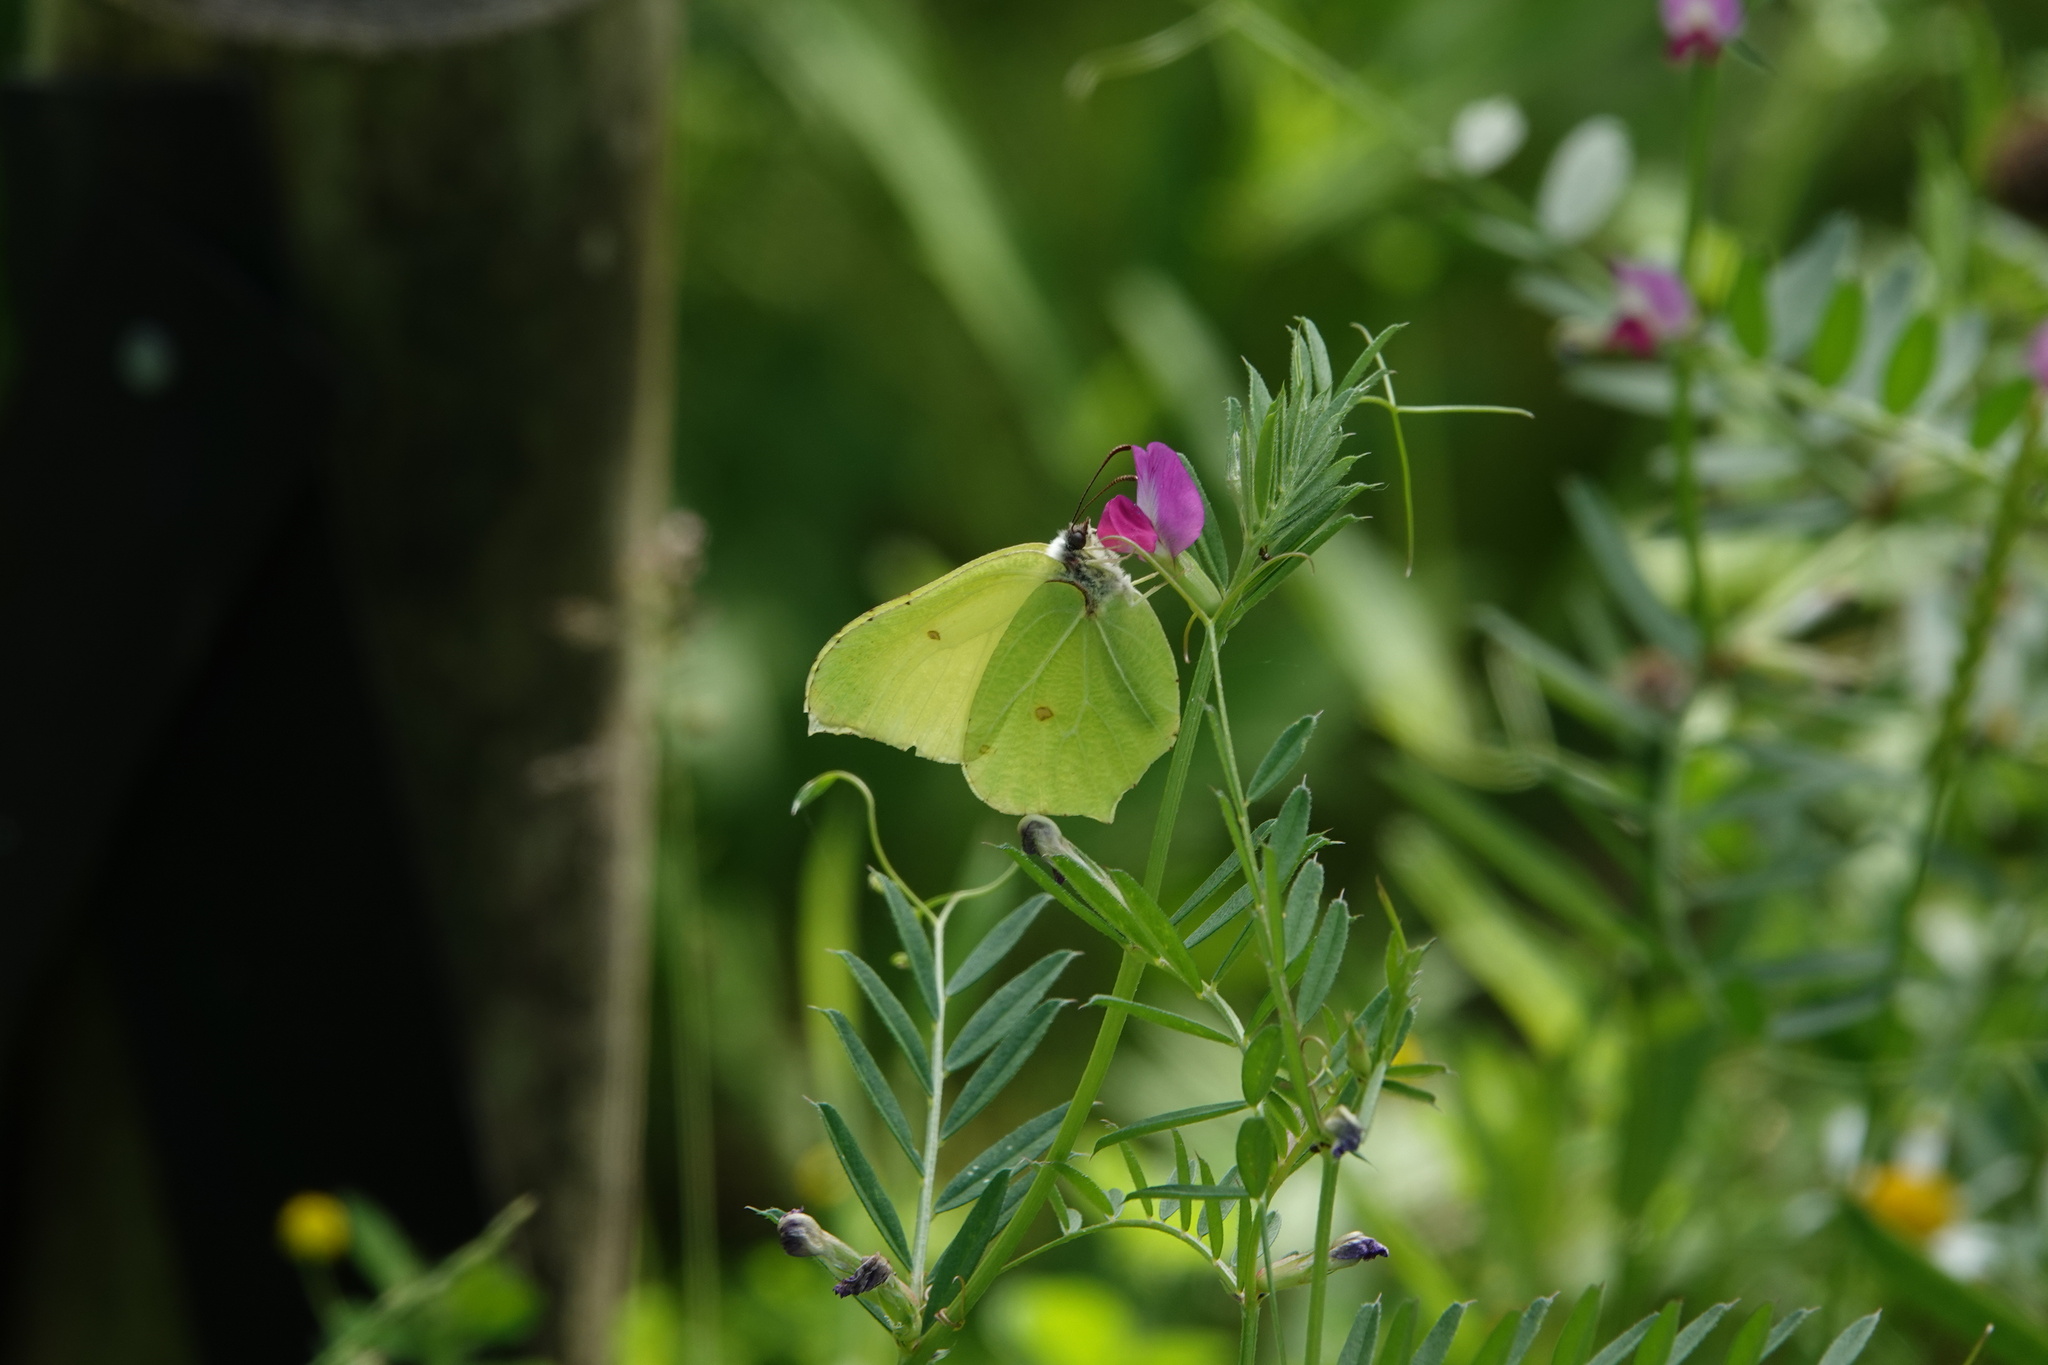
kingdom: Animalia
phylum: Arthropoda
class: Insecta
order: Lepidoptera
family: Pieridae
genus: Gonepteryx
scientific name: Gonepteryx rhamni
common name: Brimstone
